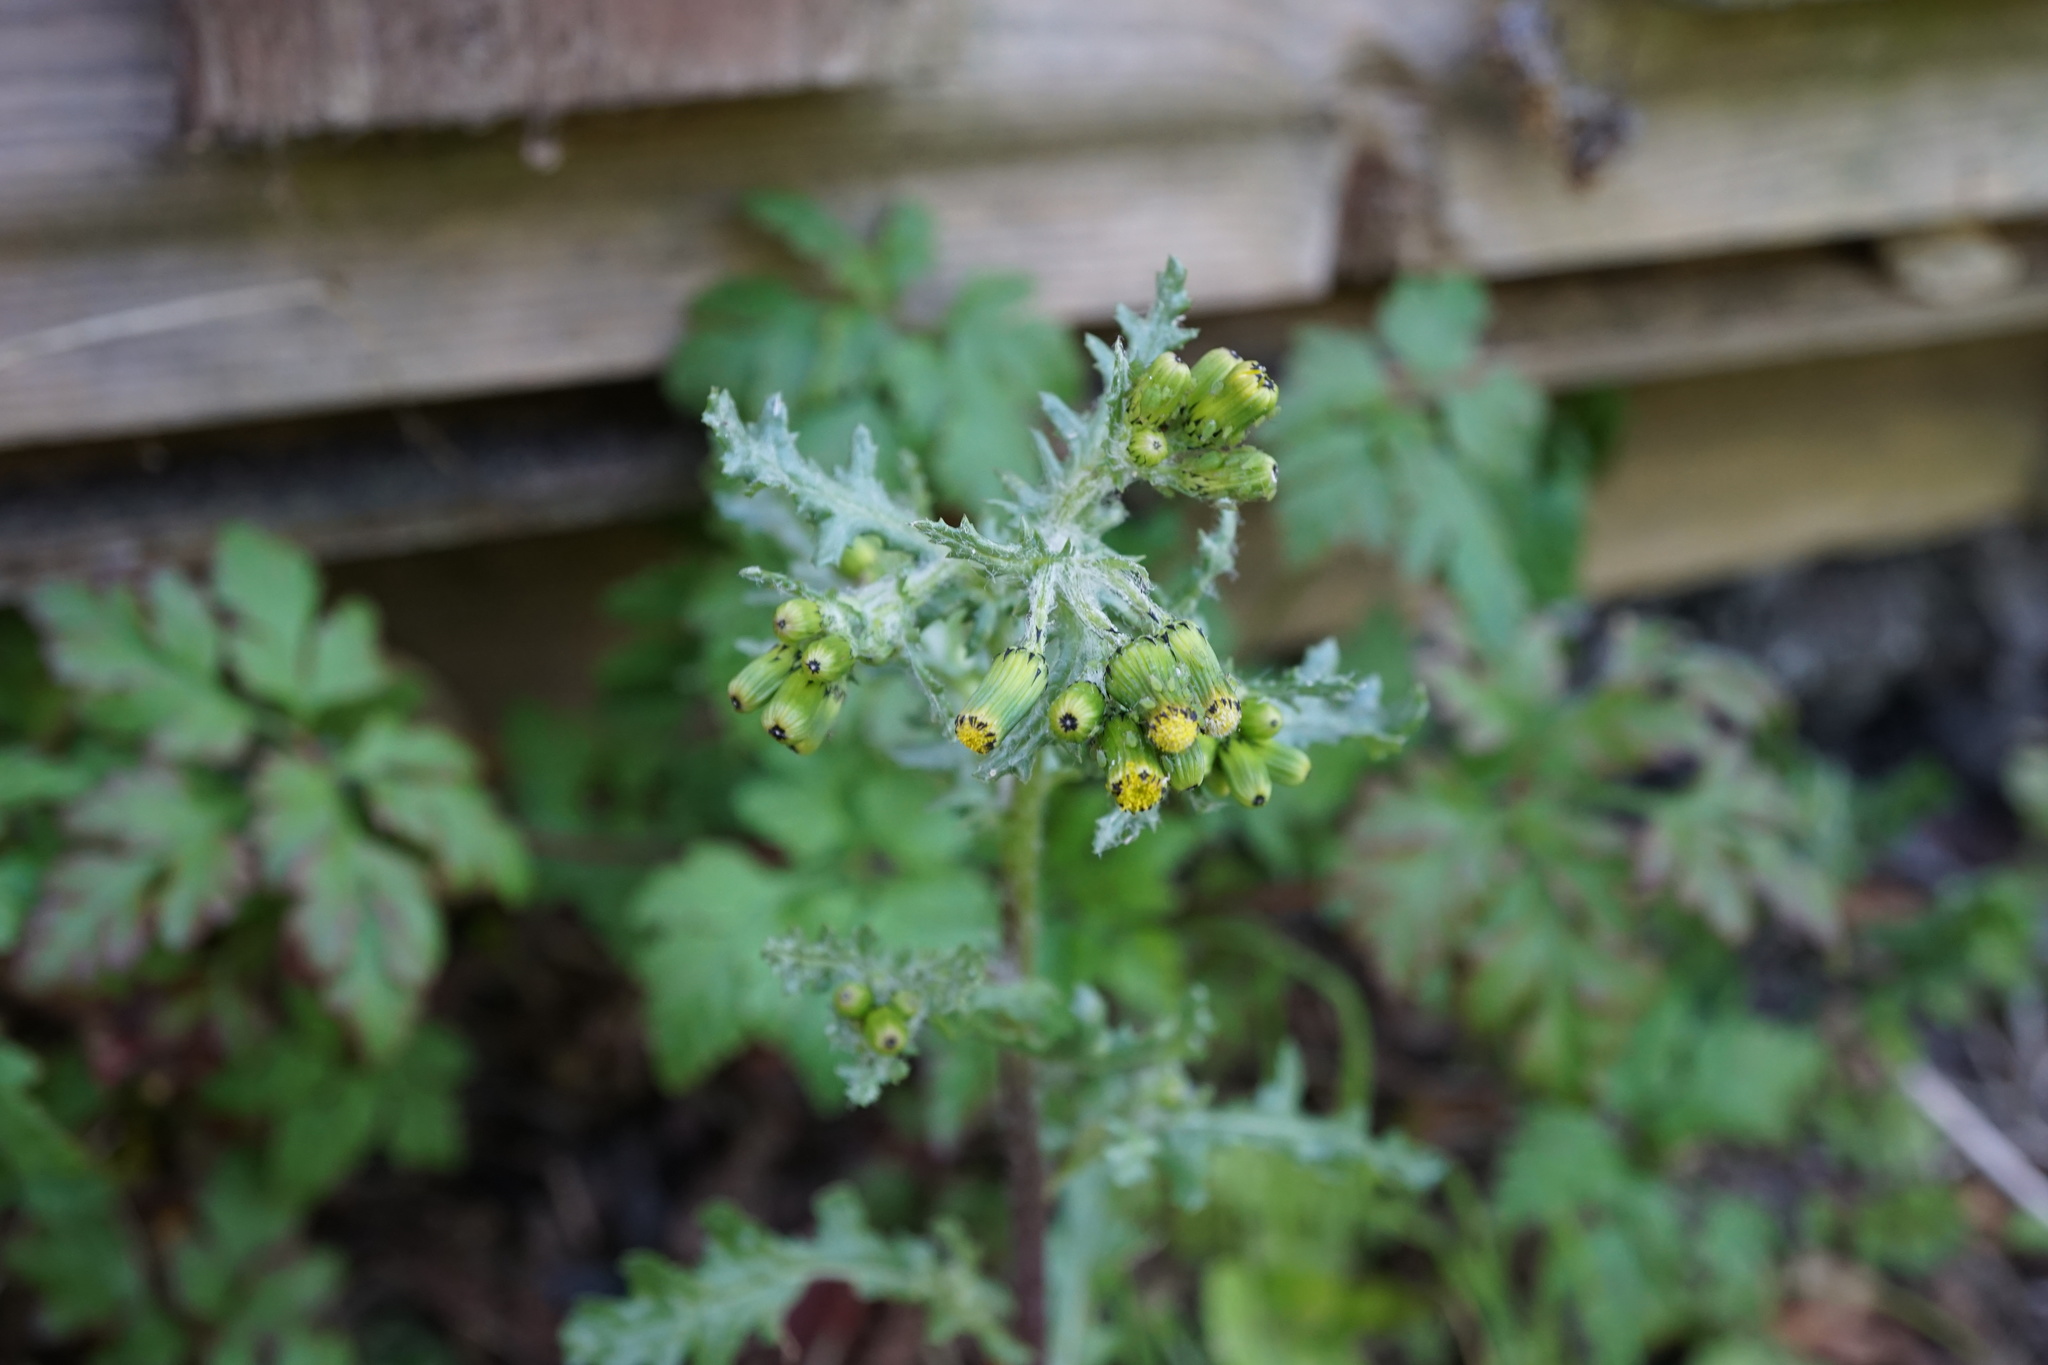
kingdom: Plantae
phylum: Tracheophyta
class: Magnoliopsida
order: Asterales
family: Asteraceae
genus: Senecio
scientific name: Senecio vulgaris
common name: Old-man-in-the-spring
